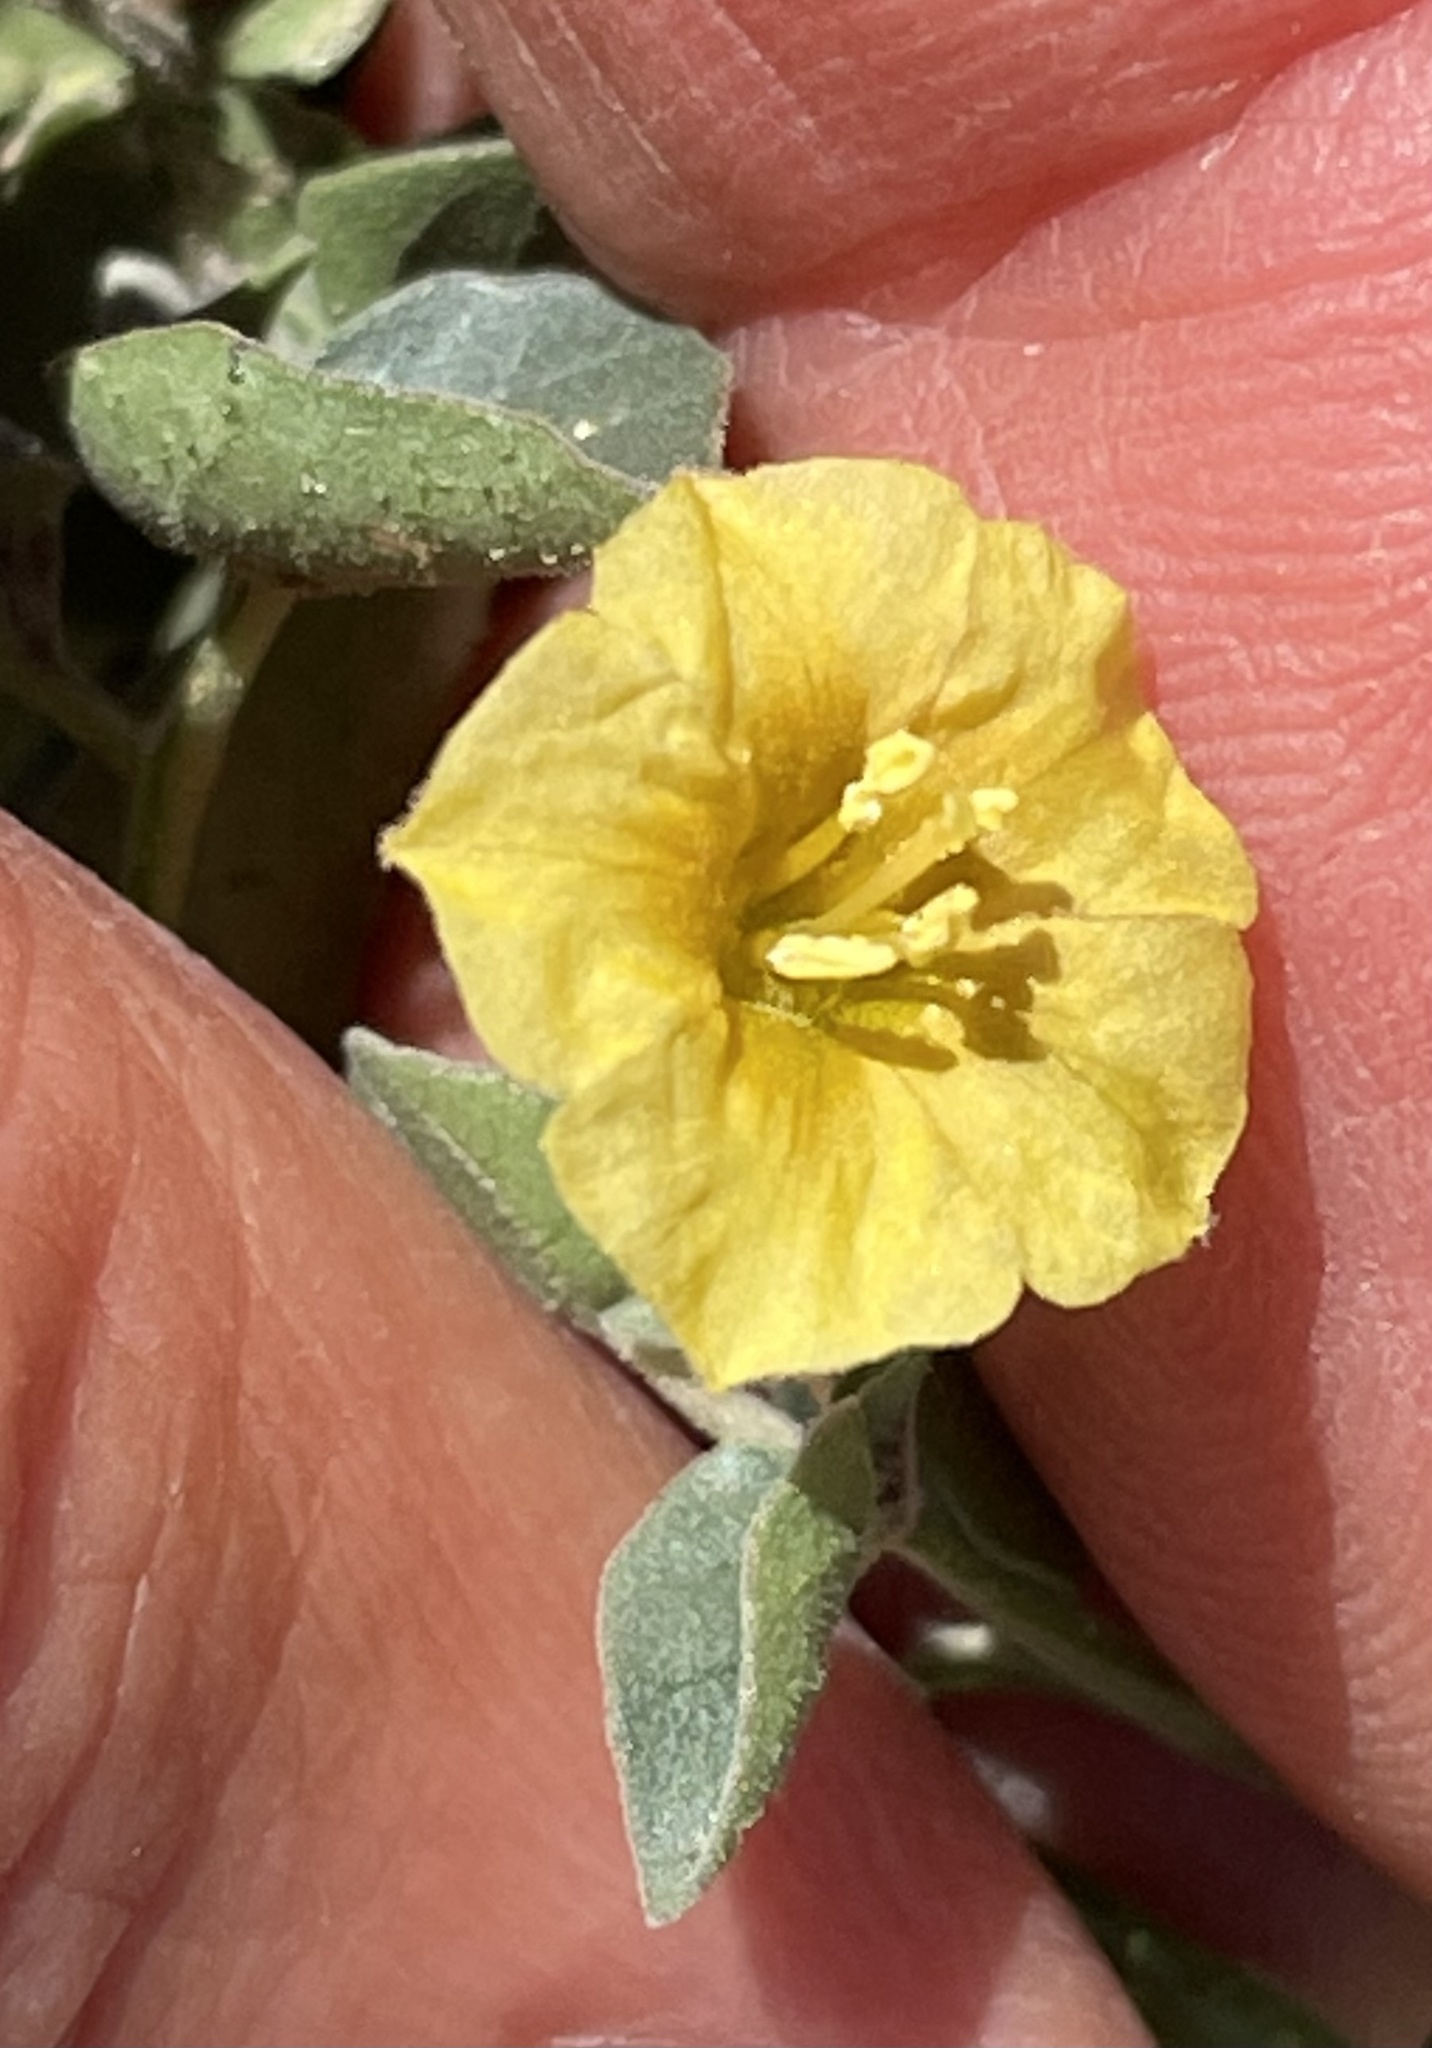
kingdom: Plantae
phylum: Tracheophyta
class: Magnoliopsida
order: Solanales
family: Solanaceae
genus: Physalis
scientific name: Physalis crassifolia
